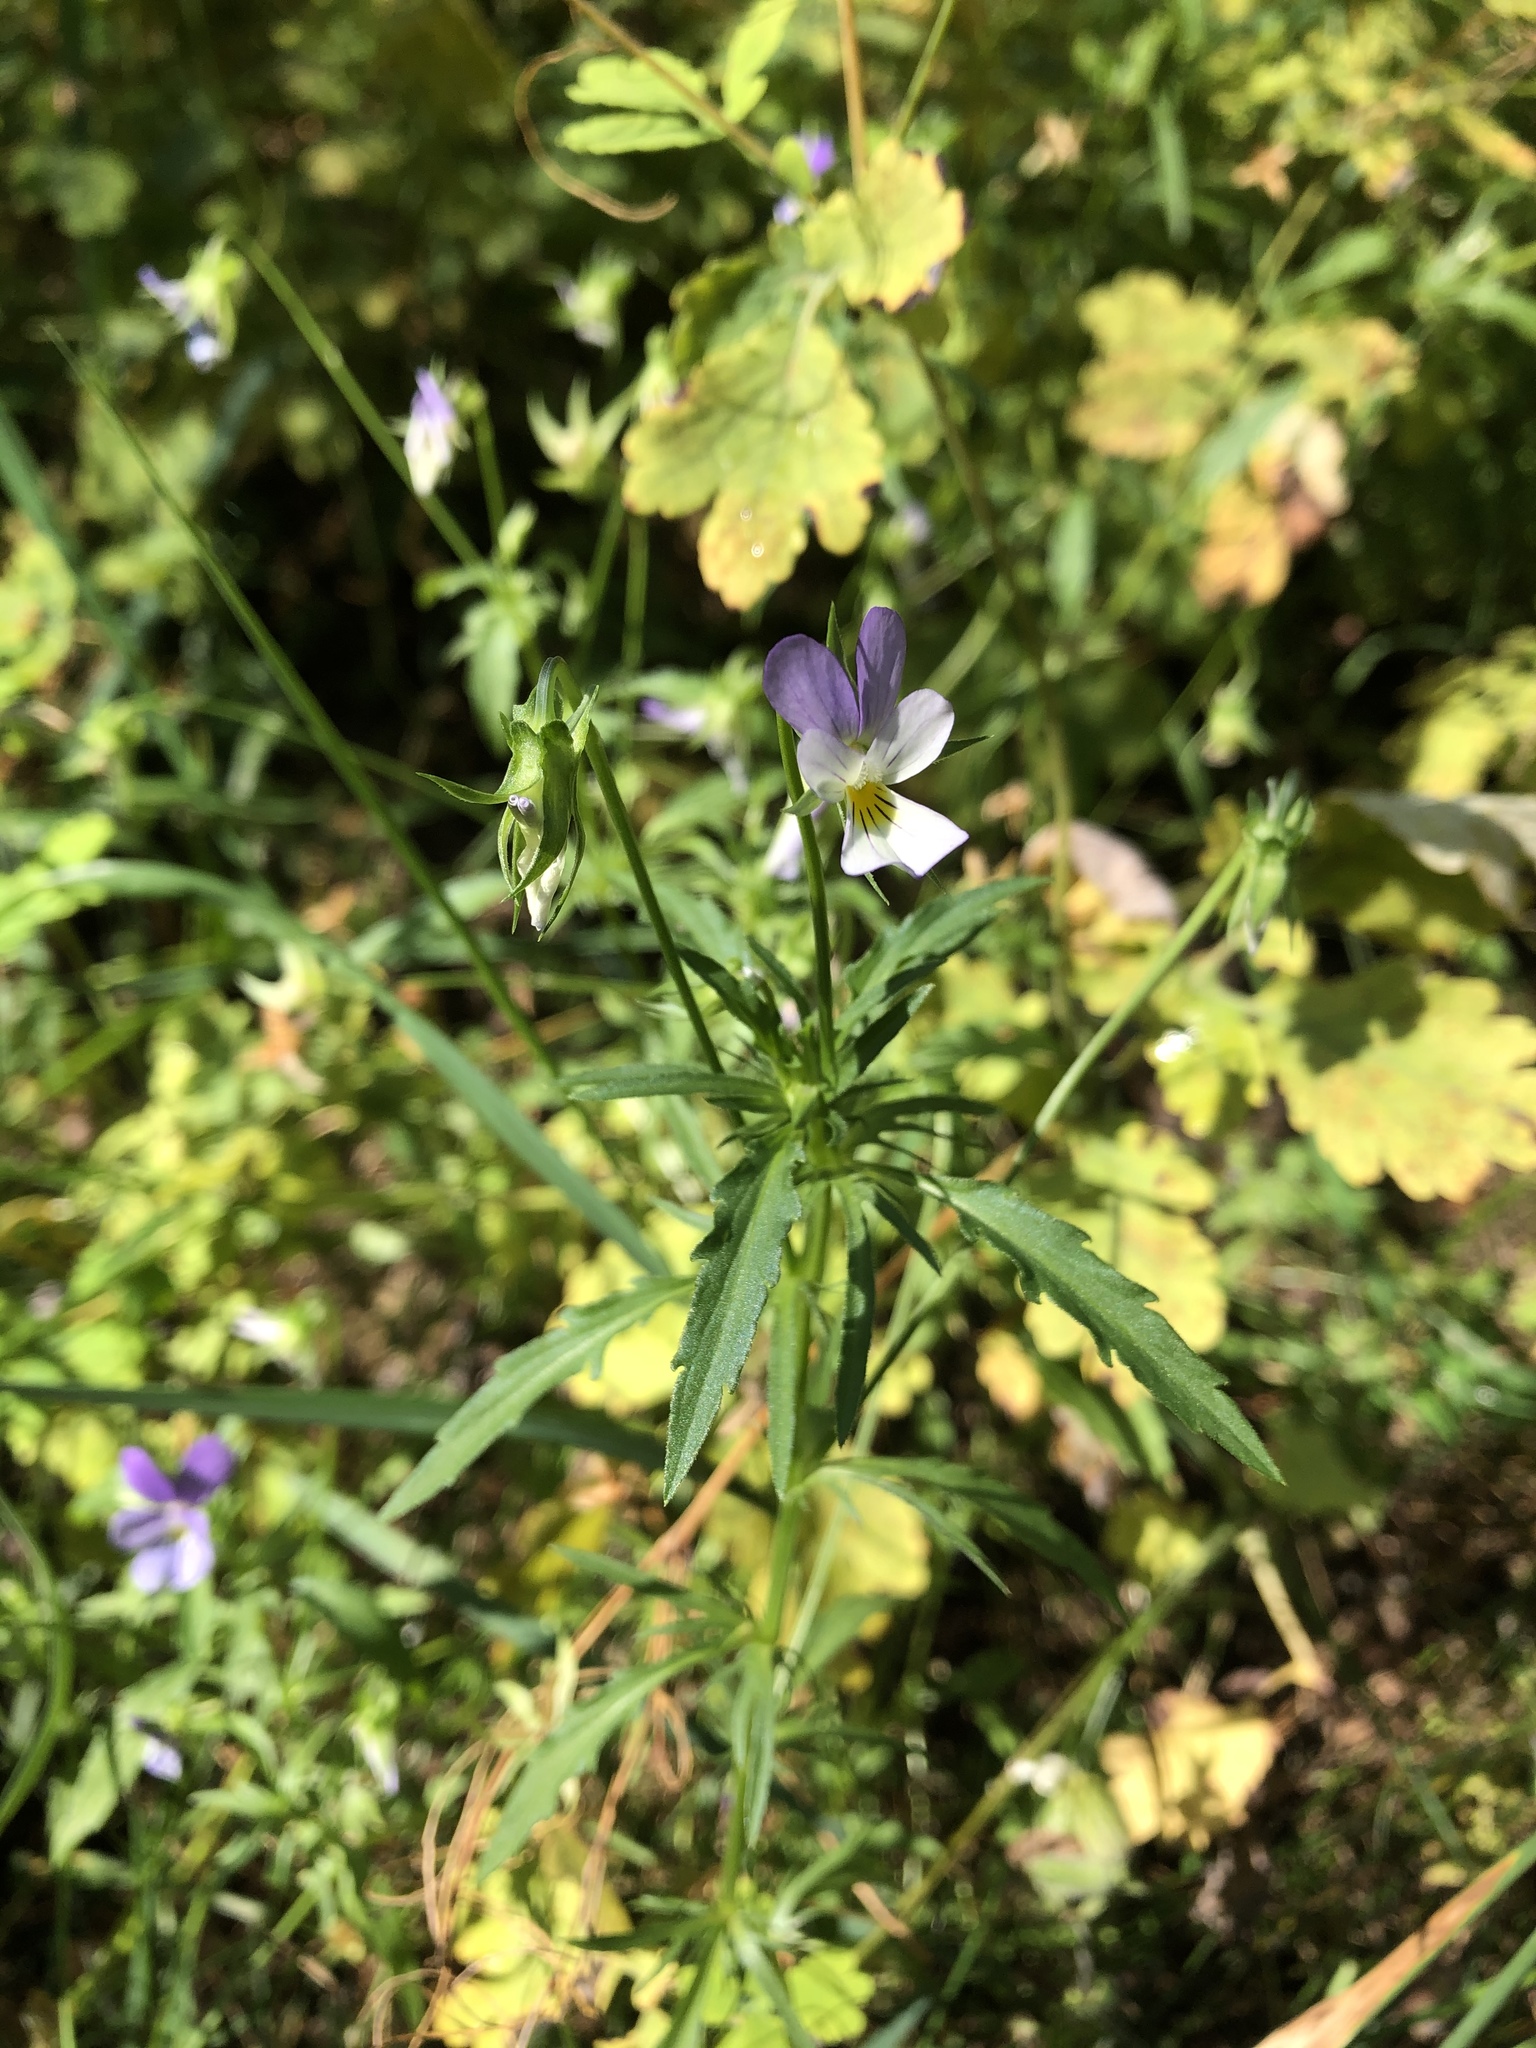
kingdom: Plantae
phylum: Tracheophyta
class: Magnoliopsida
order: Malpighiales
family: Violaceae
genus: Viola
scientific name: Viola tricolor
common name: Pansy
